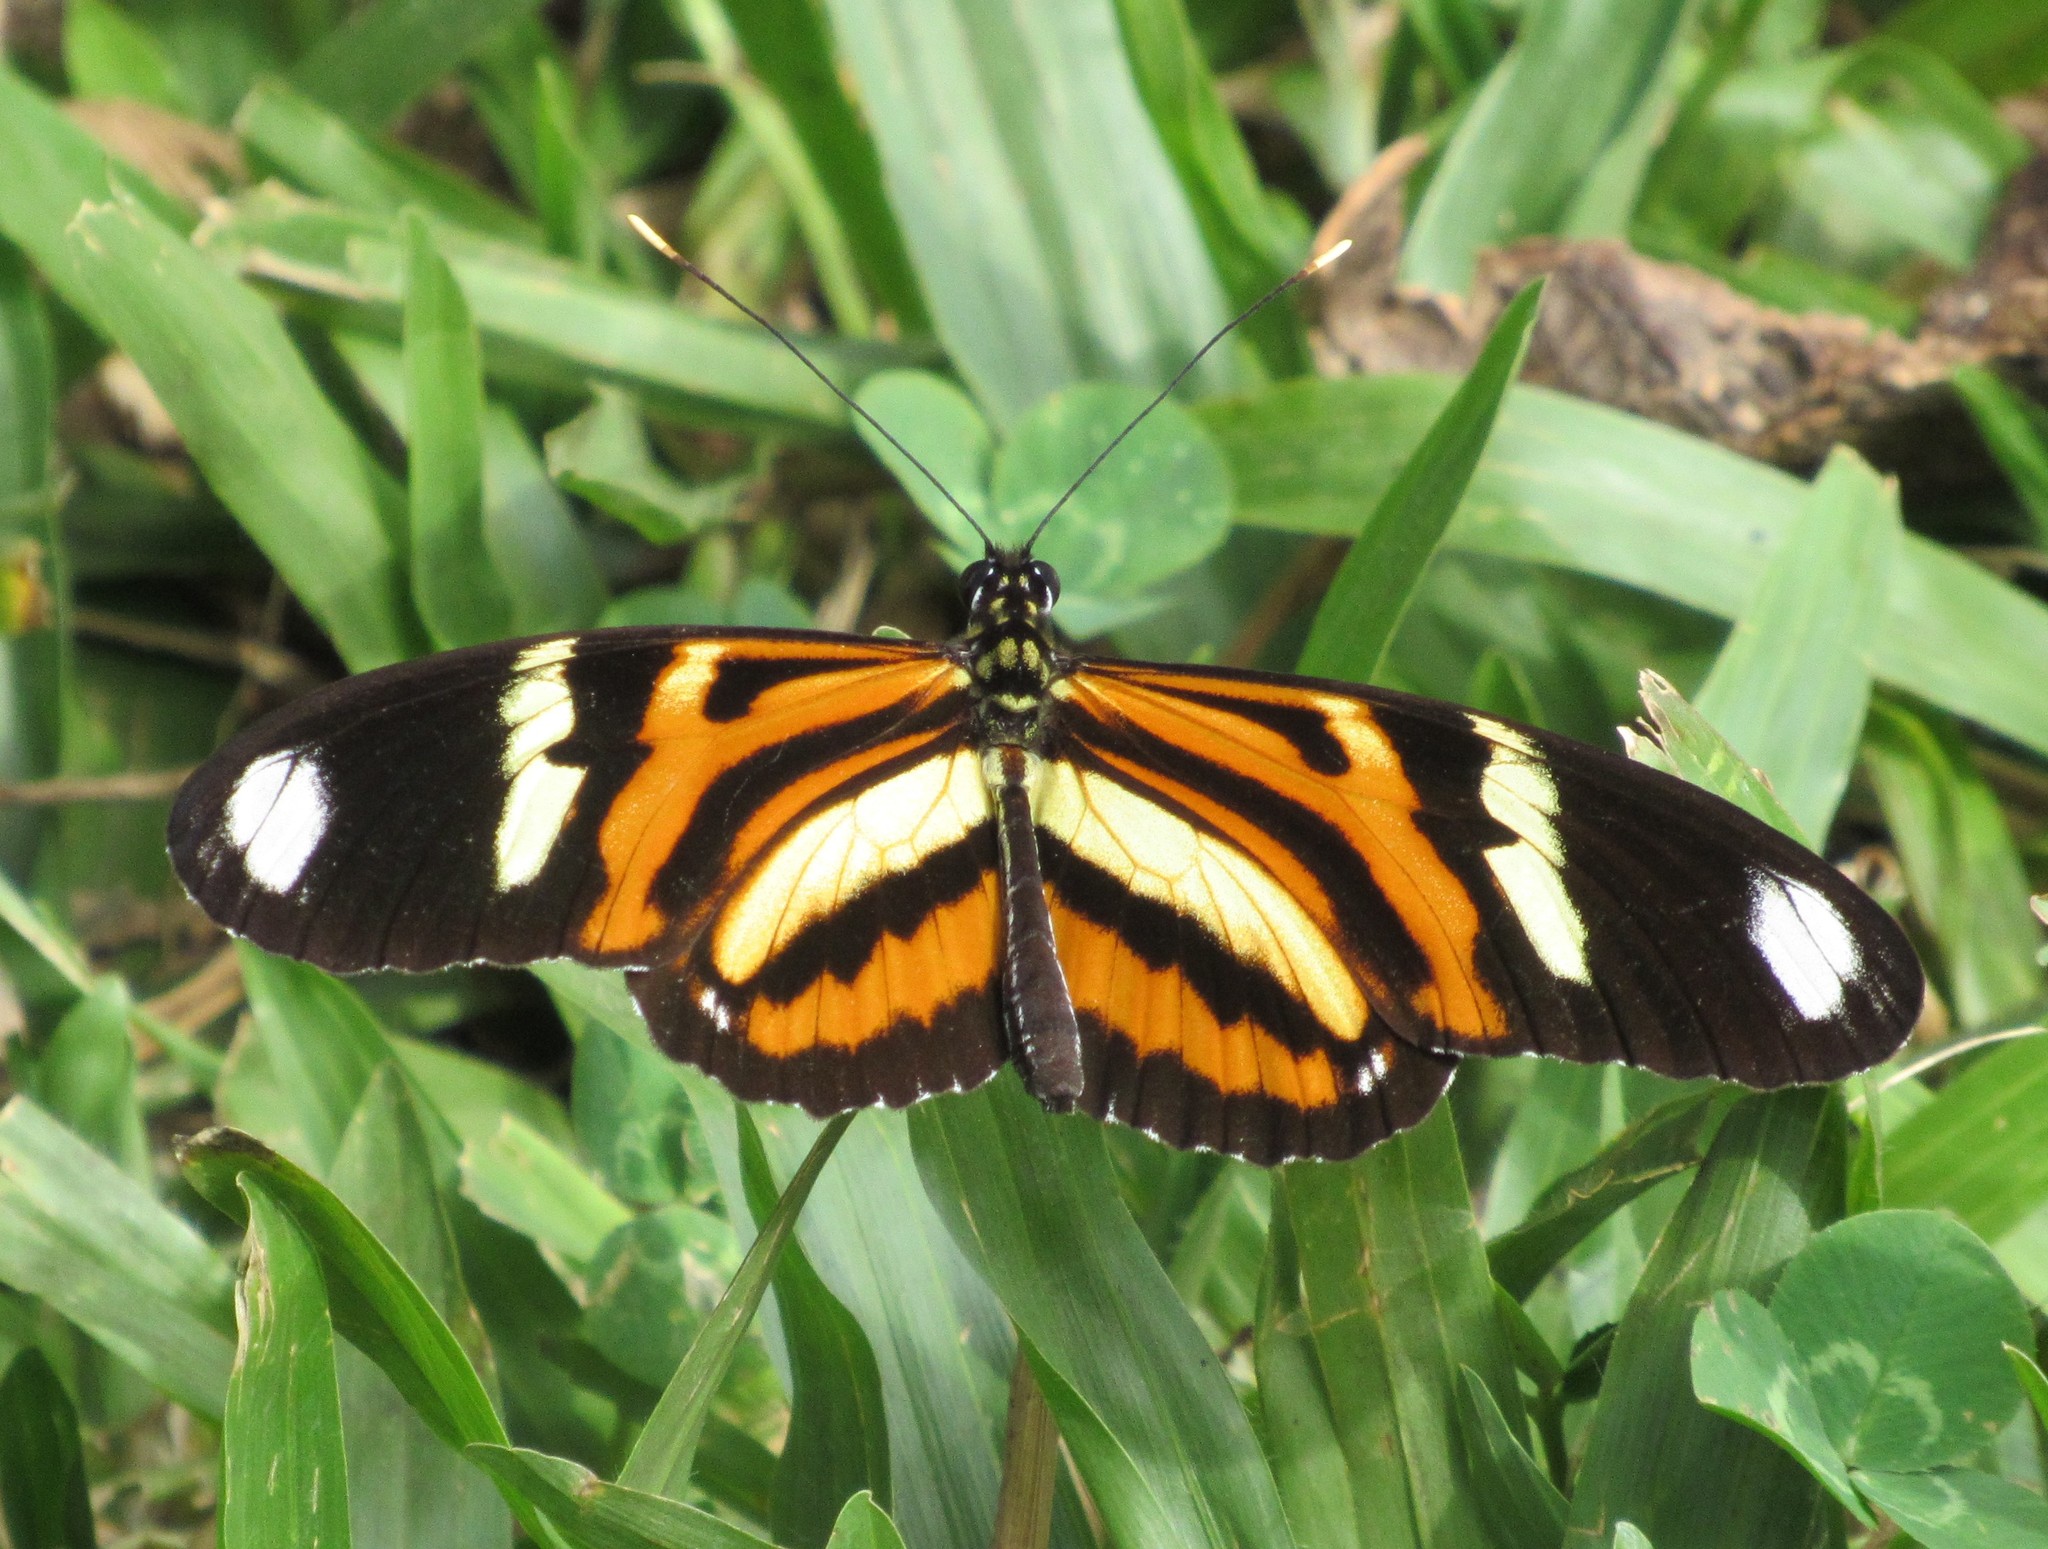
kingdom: Animalia
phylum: Arthropoda
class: Insecta
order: Lepidoptera
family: Nymphalidae
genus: Heliconius
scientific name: Heliconius ethilla
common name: Ethilia longwing
